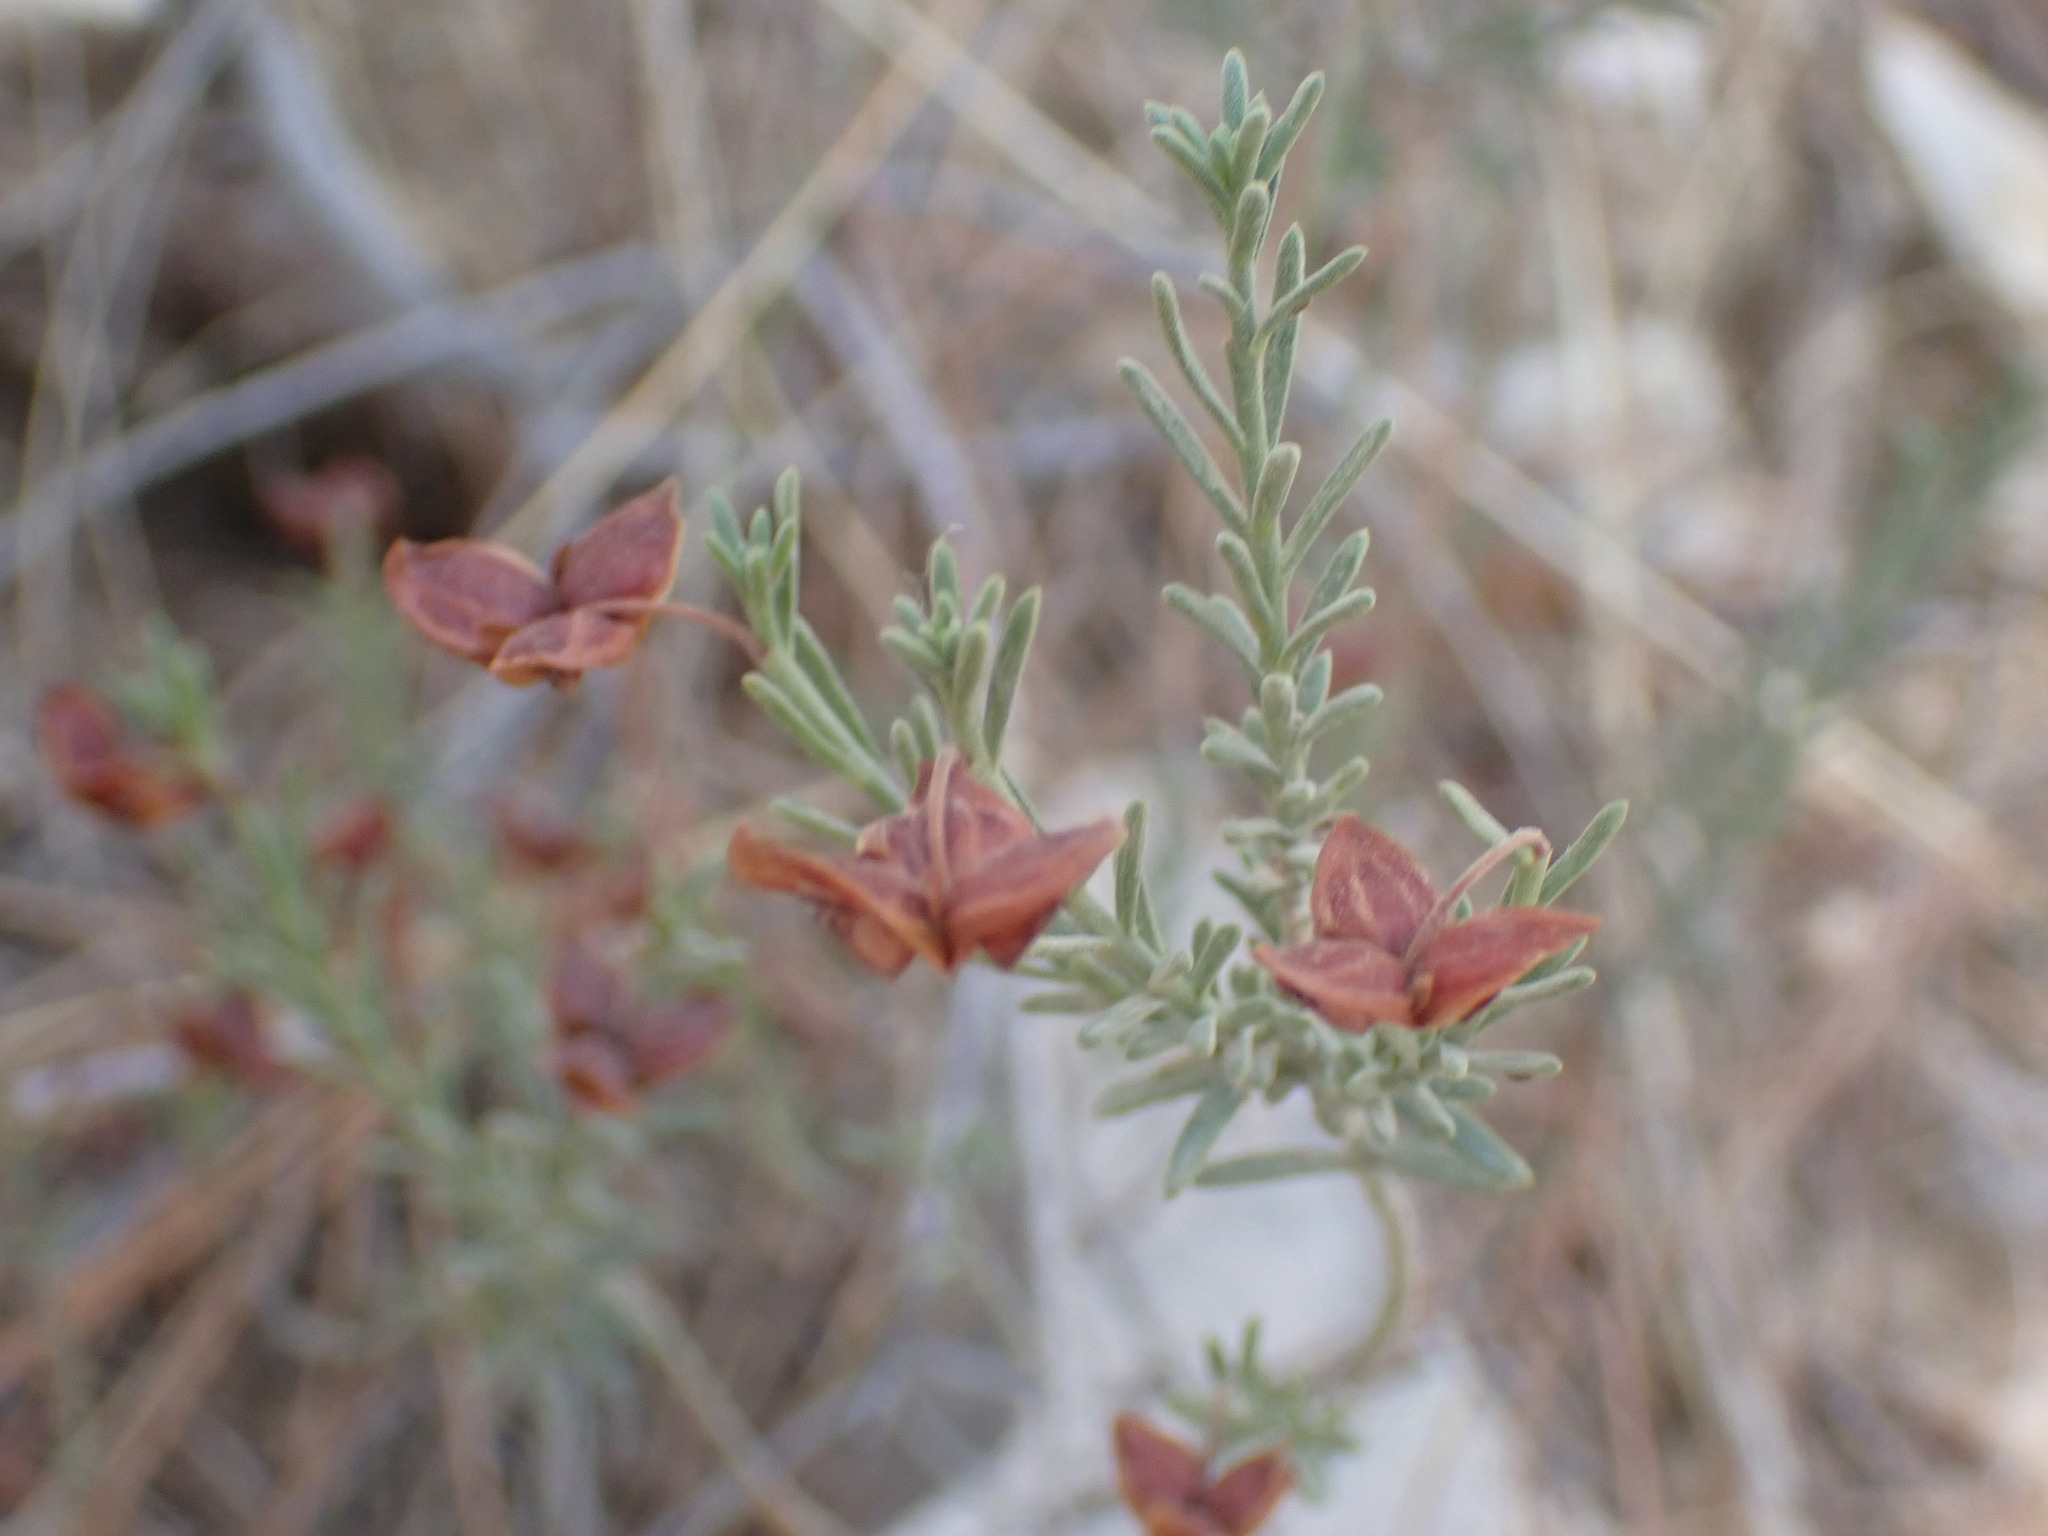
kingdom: Plantae
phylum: Tracheophyta
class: Magnoliopsida
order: Malvales
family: Cistaceae
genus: Fumana
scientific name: Fumana ericoides
